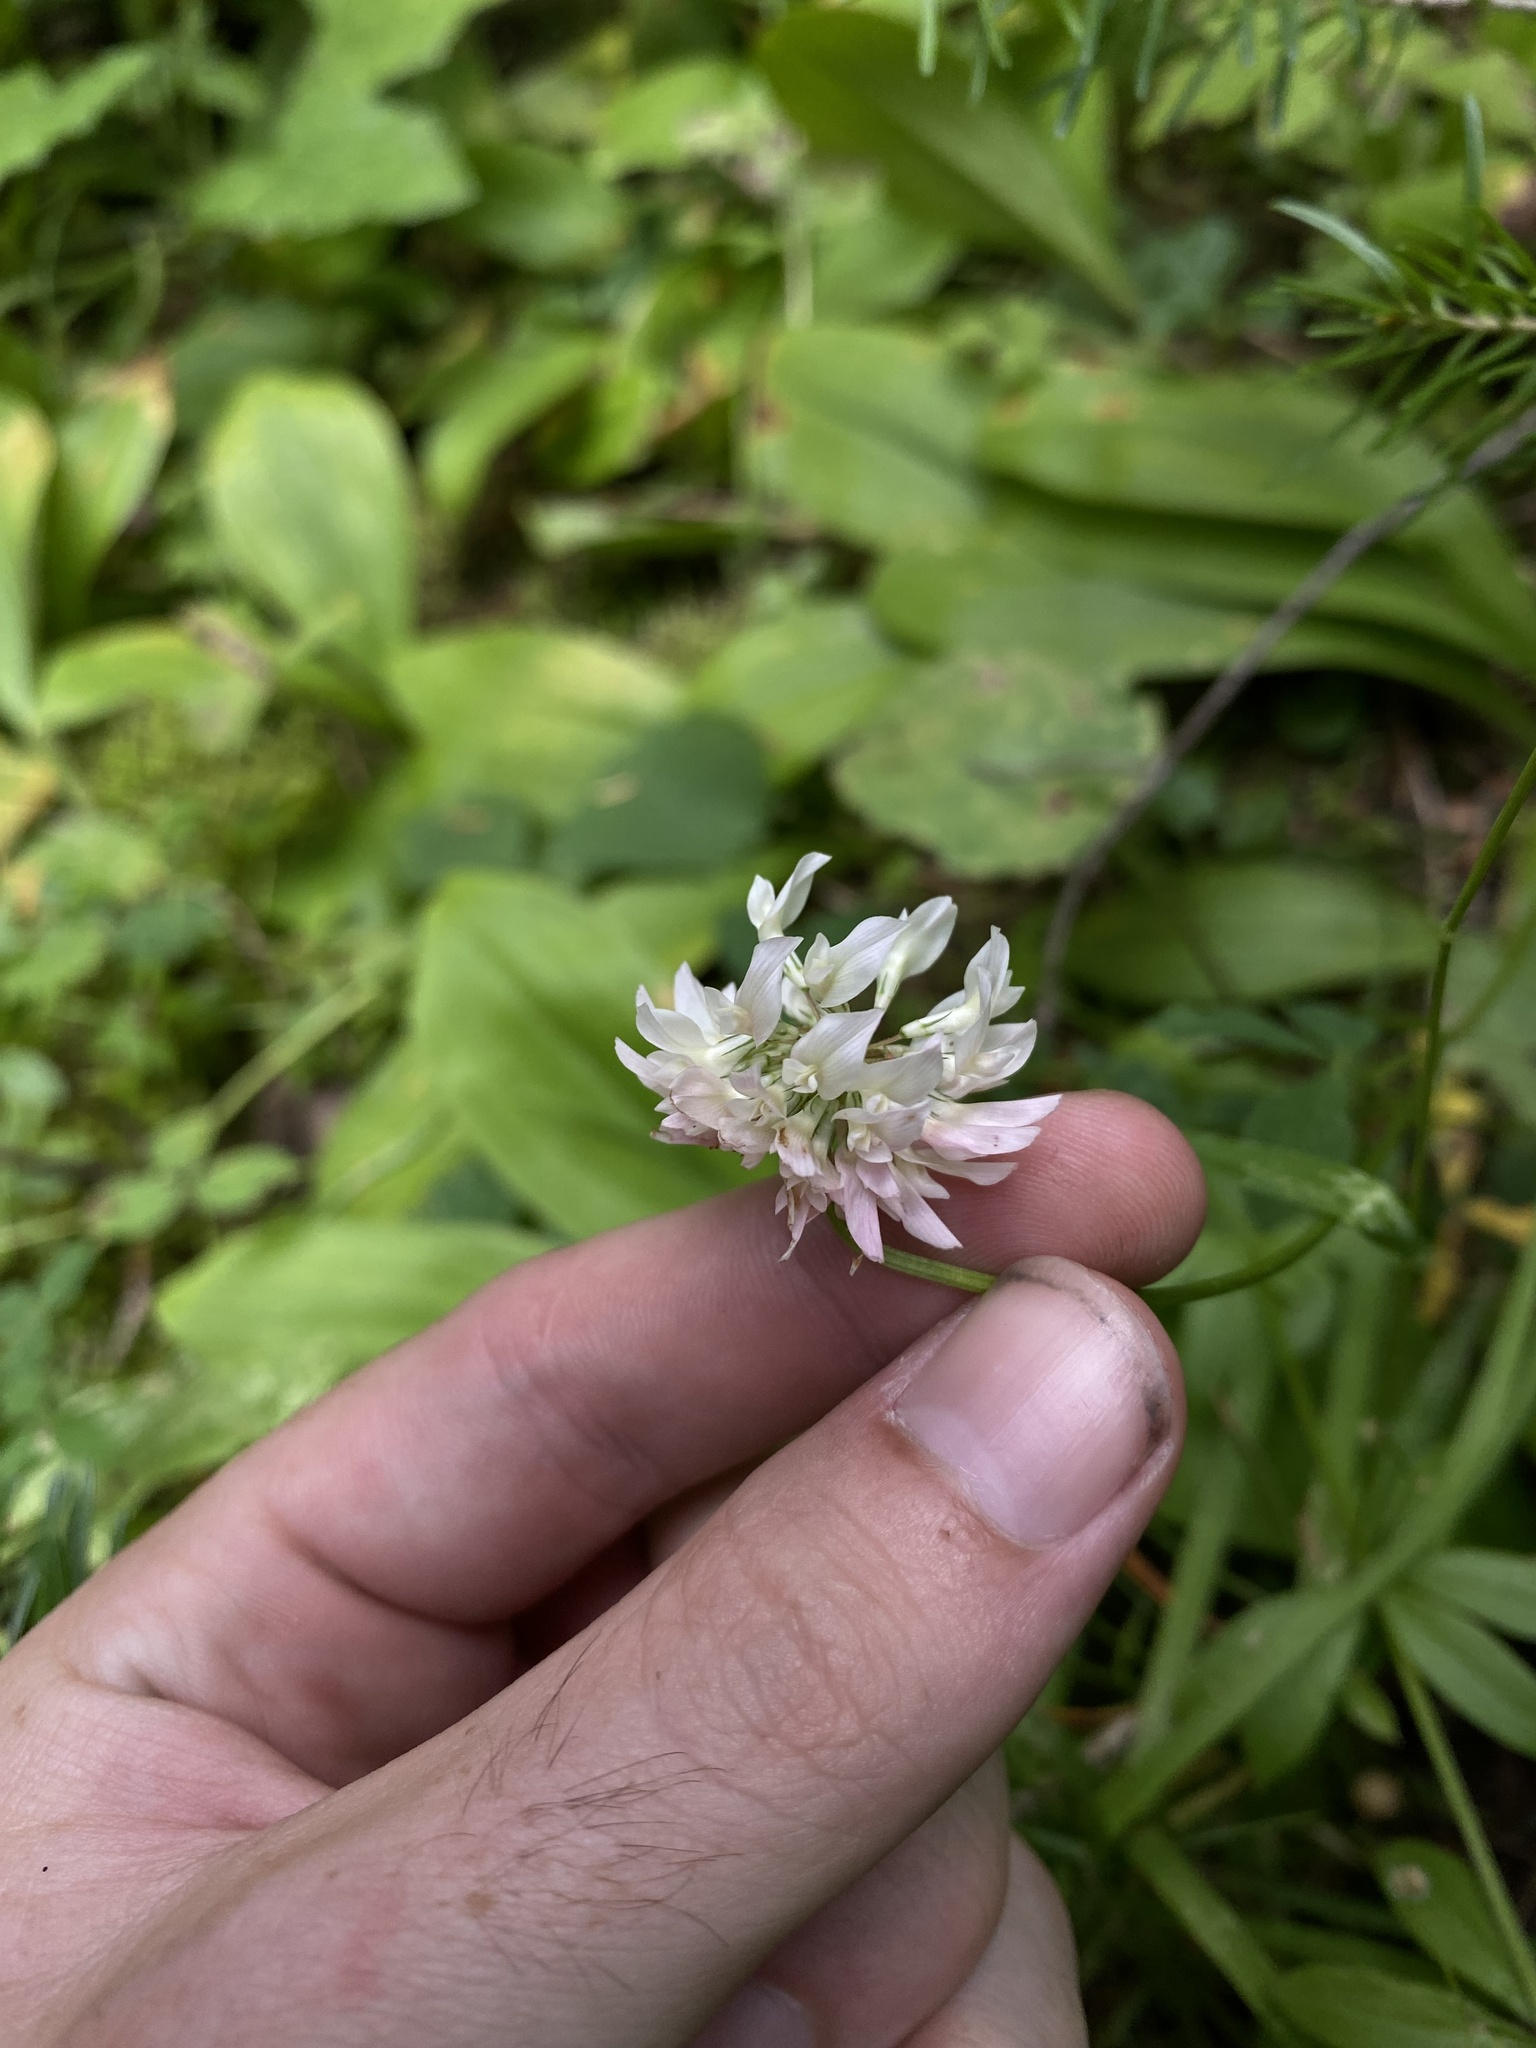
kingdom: Plantae
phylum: Tracheophyta
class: Magnoliopsida
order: Fabales
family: Fabaceae
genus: Trifolium
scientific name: Trifolium hybridum
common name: Alsike clover
